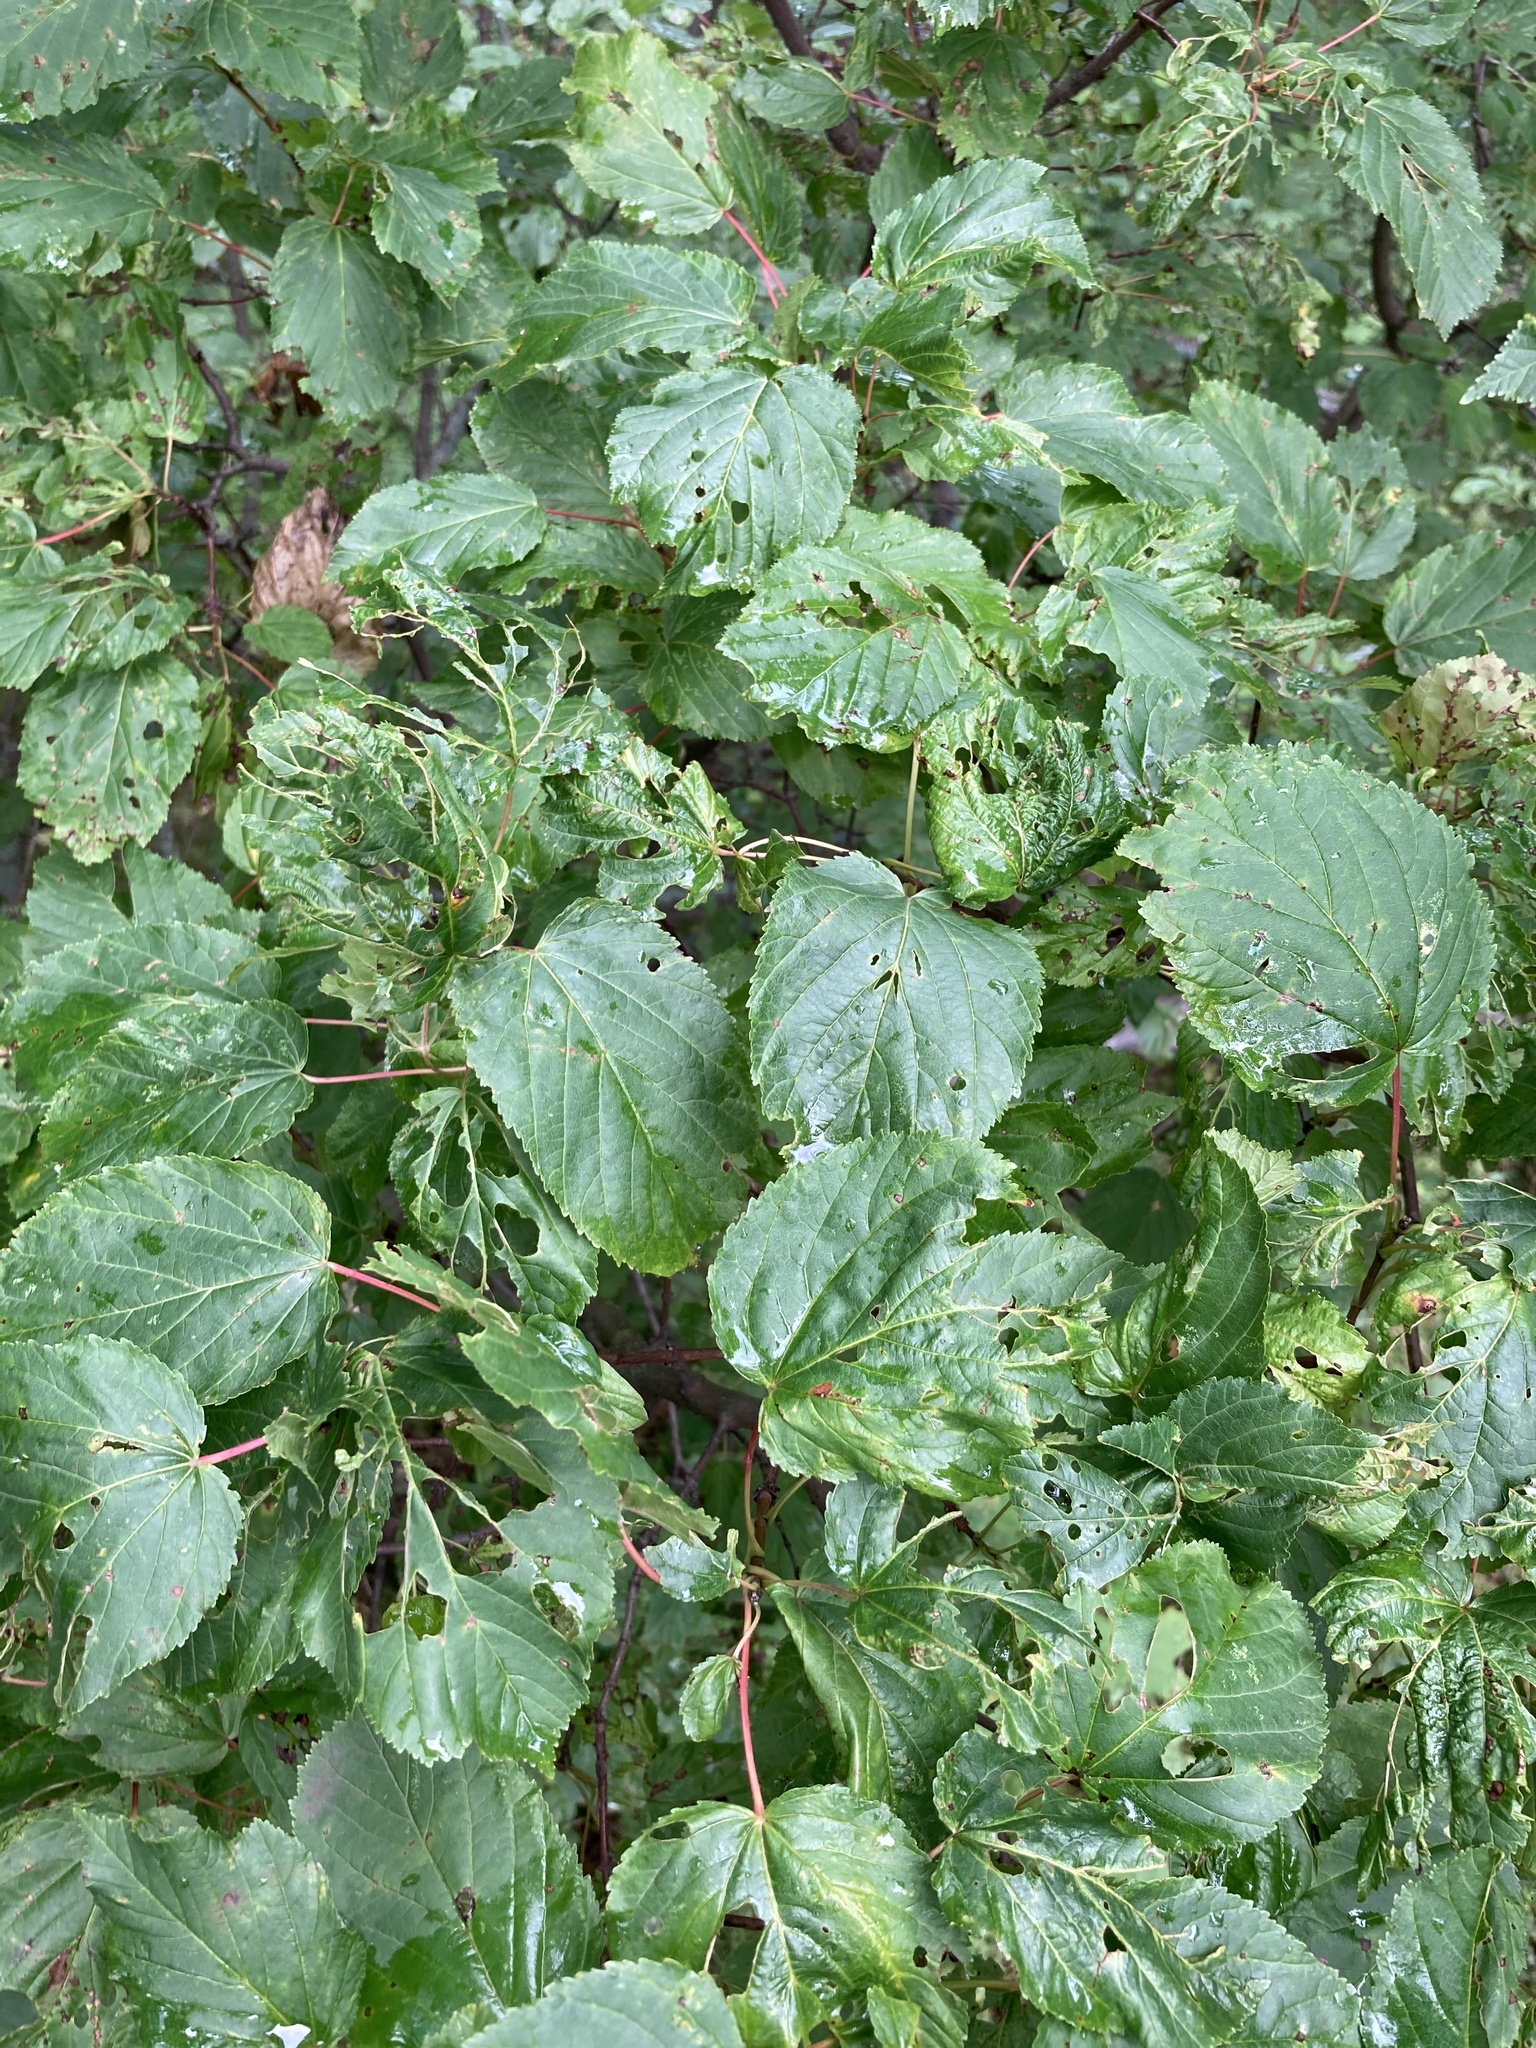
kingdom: Plantae
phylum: Tracheophyta
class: Magnoliopsida
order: Sapindales
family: Sapindaceae
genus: Acer
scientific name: Acer tataricum
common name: Tartar maple
